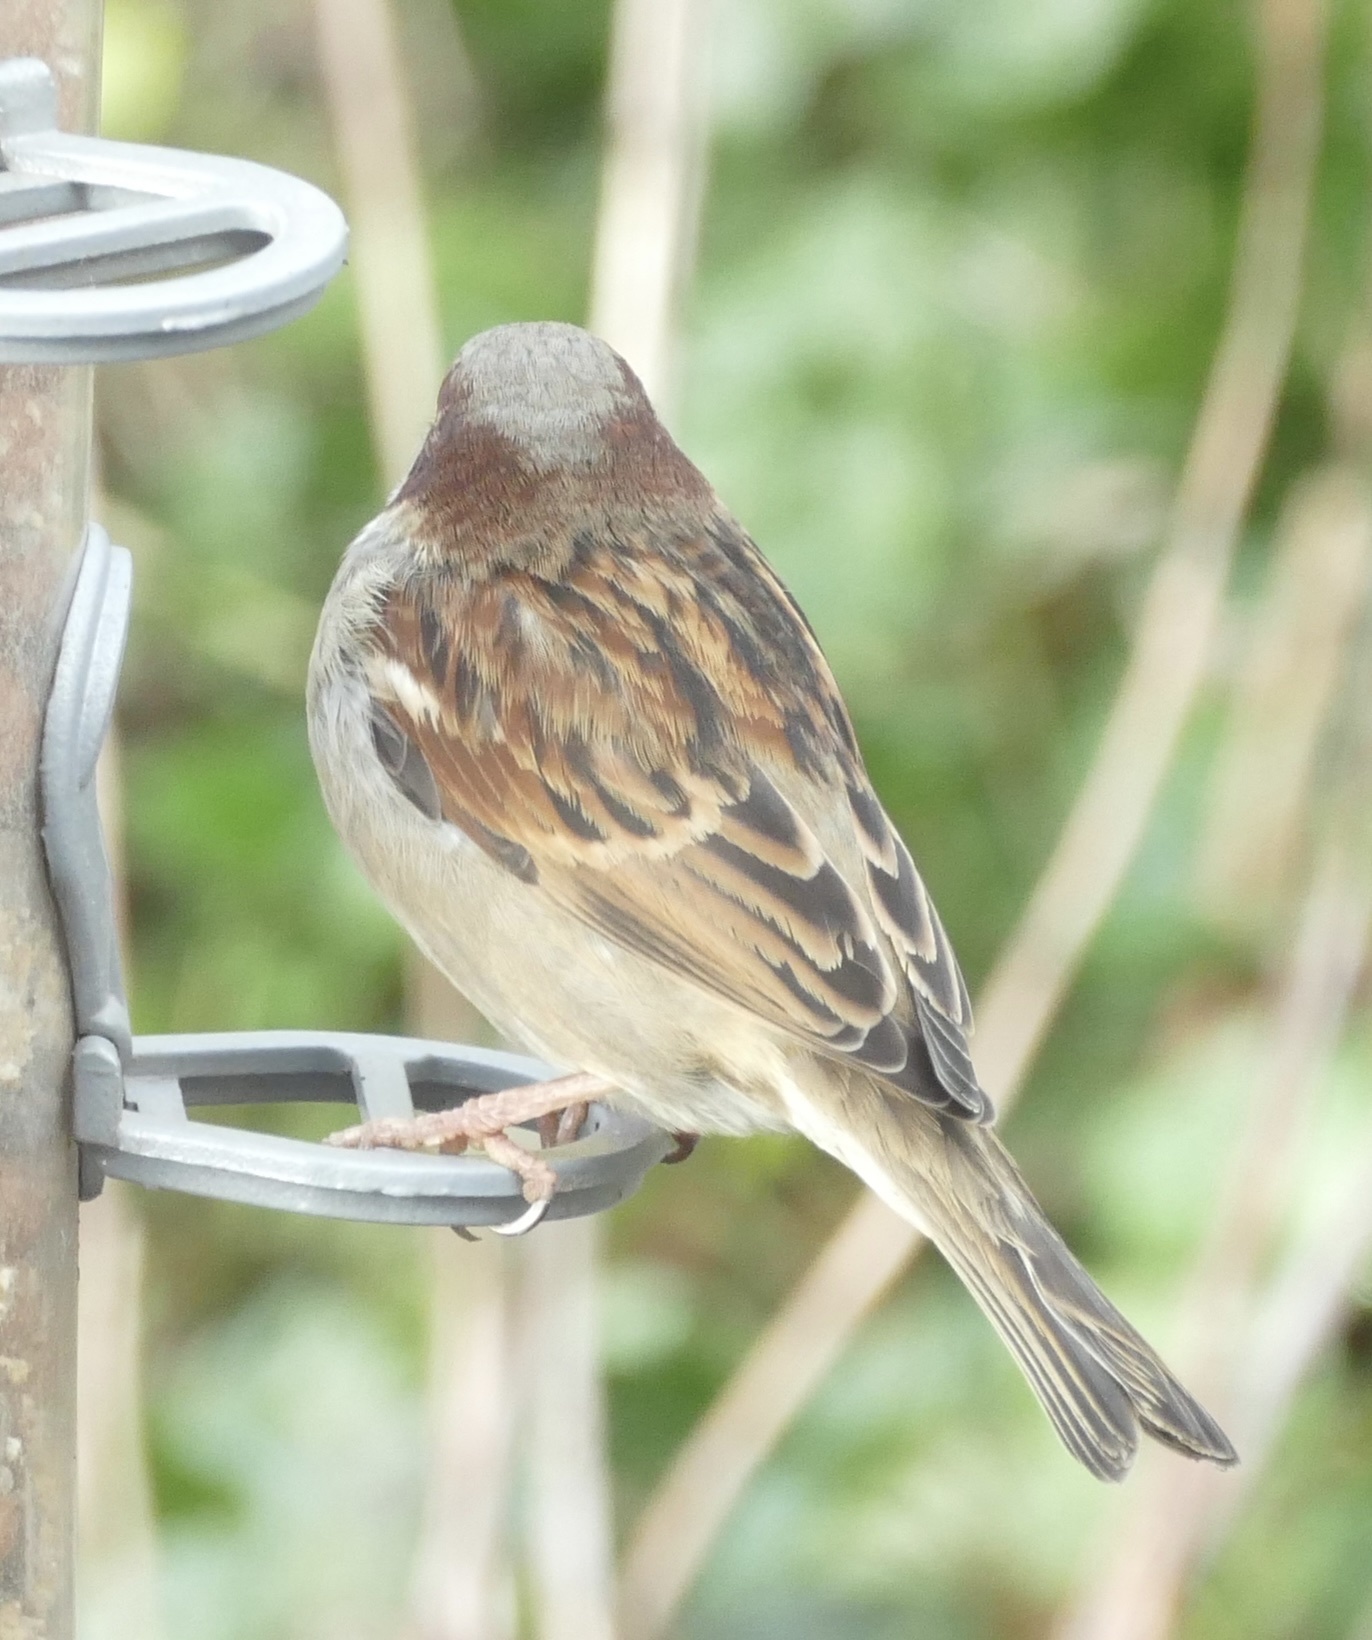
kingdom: Animalia
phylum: Chordata
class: Aves
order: Passeriformes
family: Passeridae
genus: Passer
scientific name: Passer domesticus
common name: House sparrow
